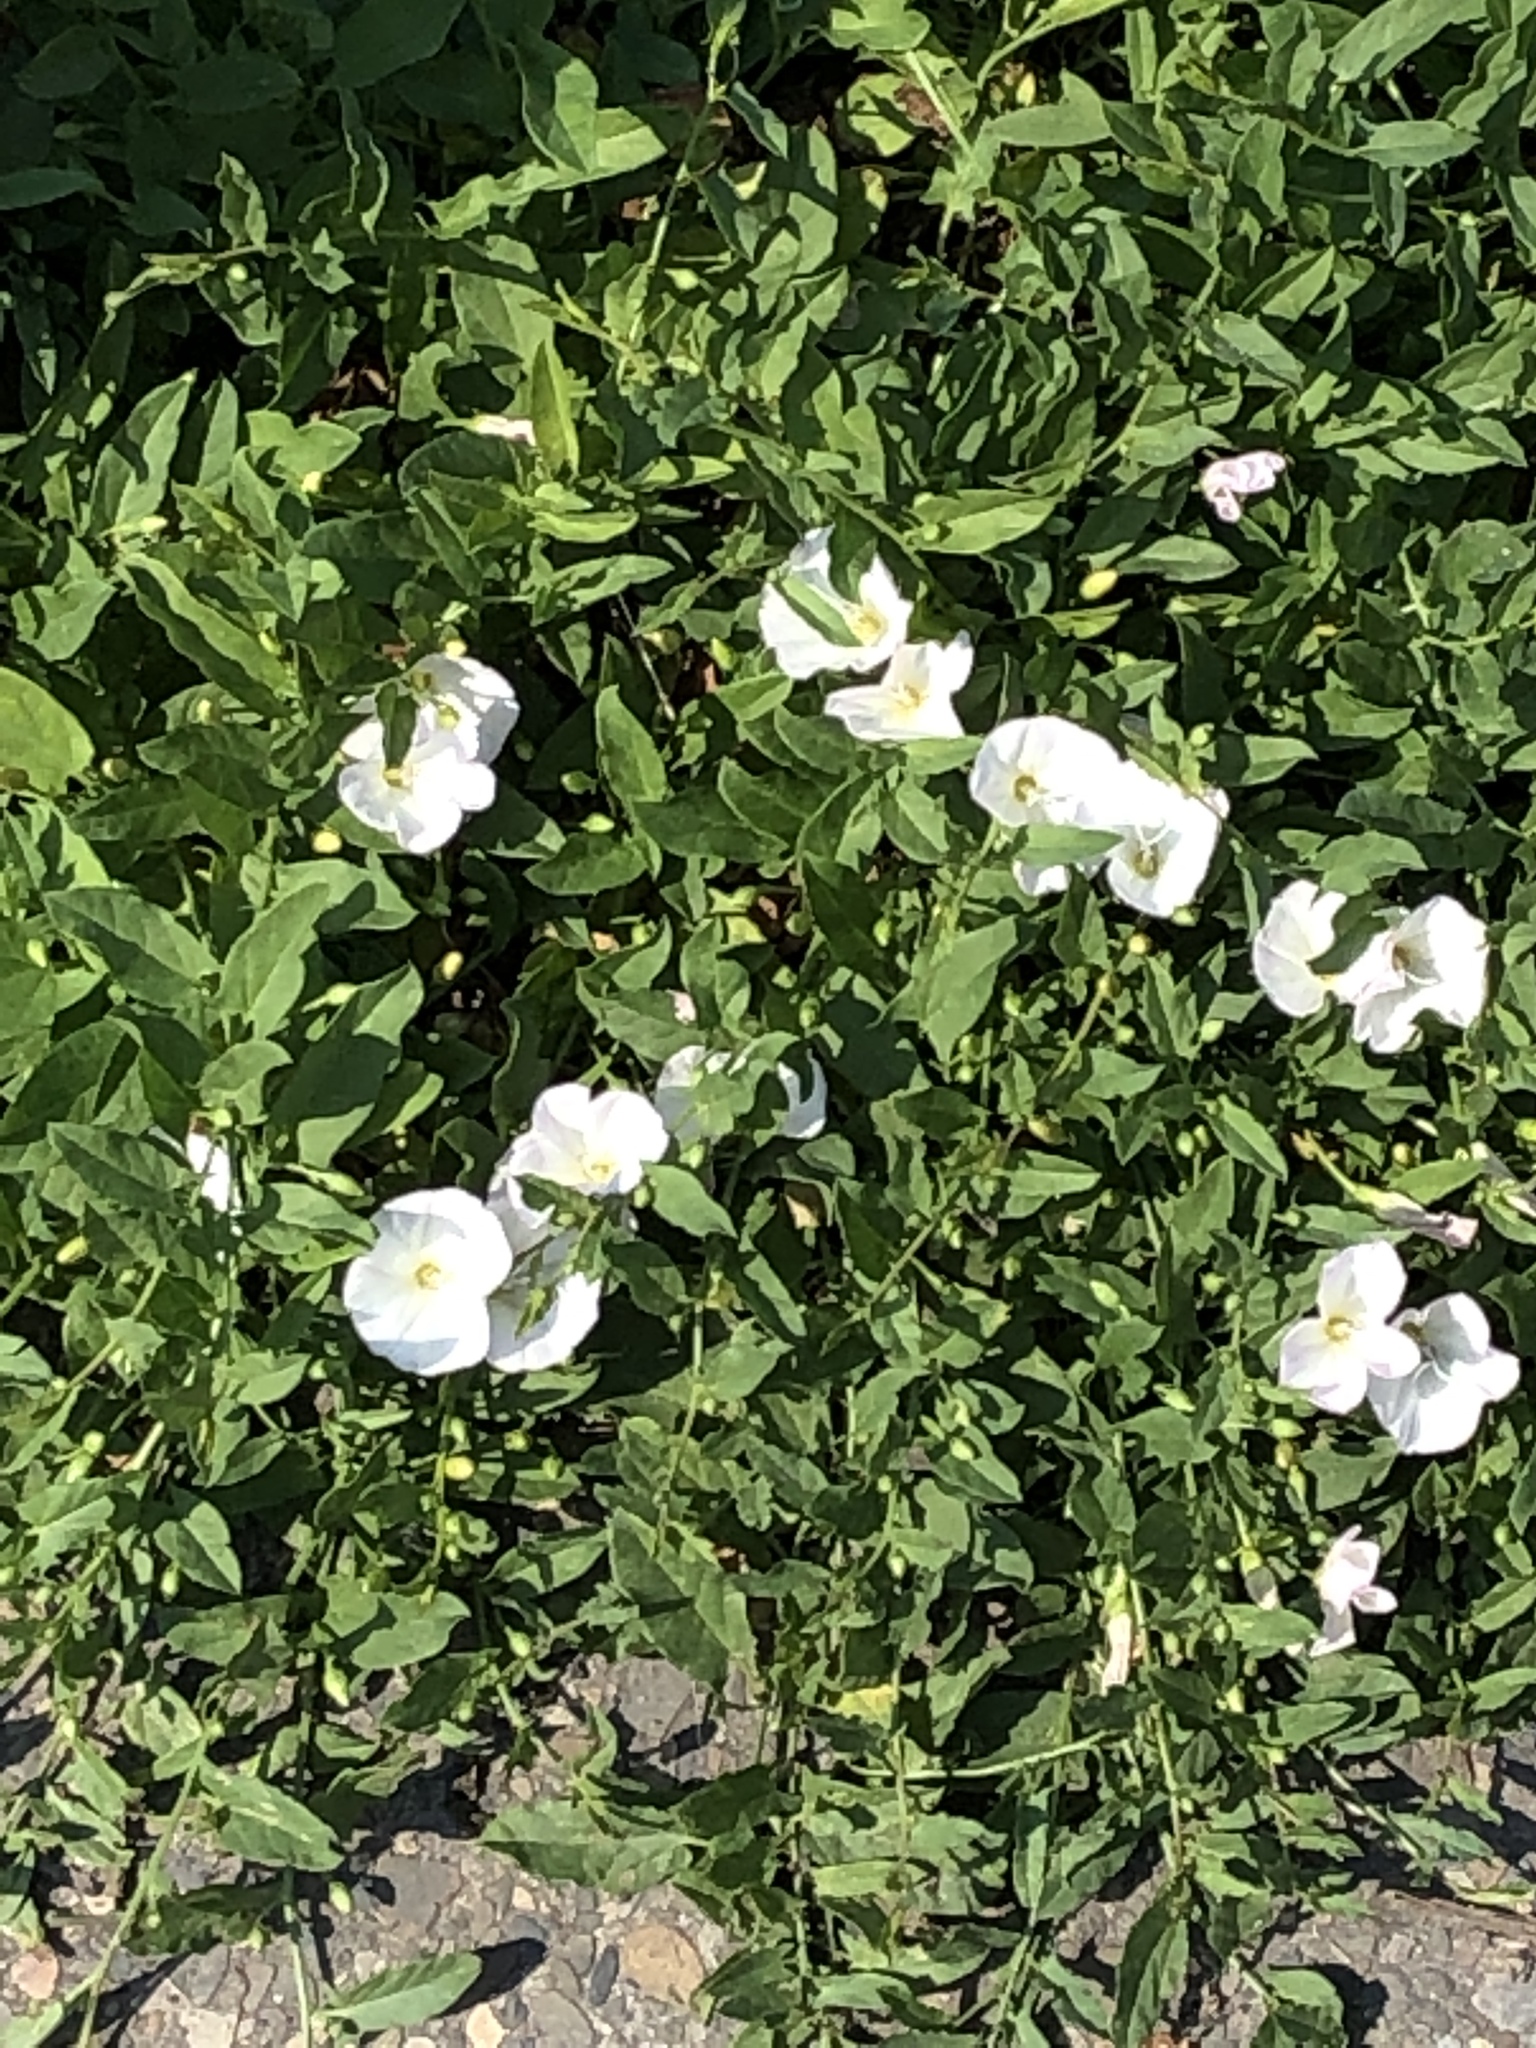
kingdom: Plantae
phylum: Tracheophyta
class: Magnoliopsida
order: Solanales
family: Convolvulaceae
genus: Convolvulus
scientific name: Convolvulus arvensis
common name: Field bindweed
